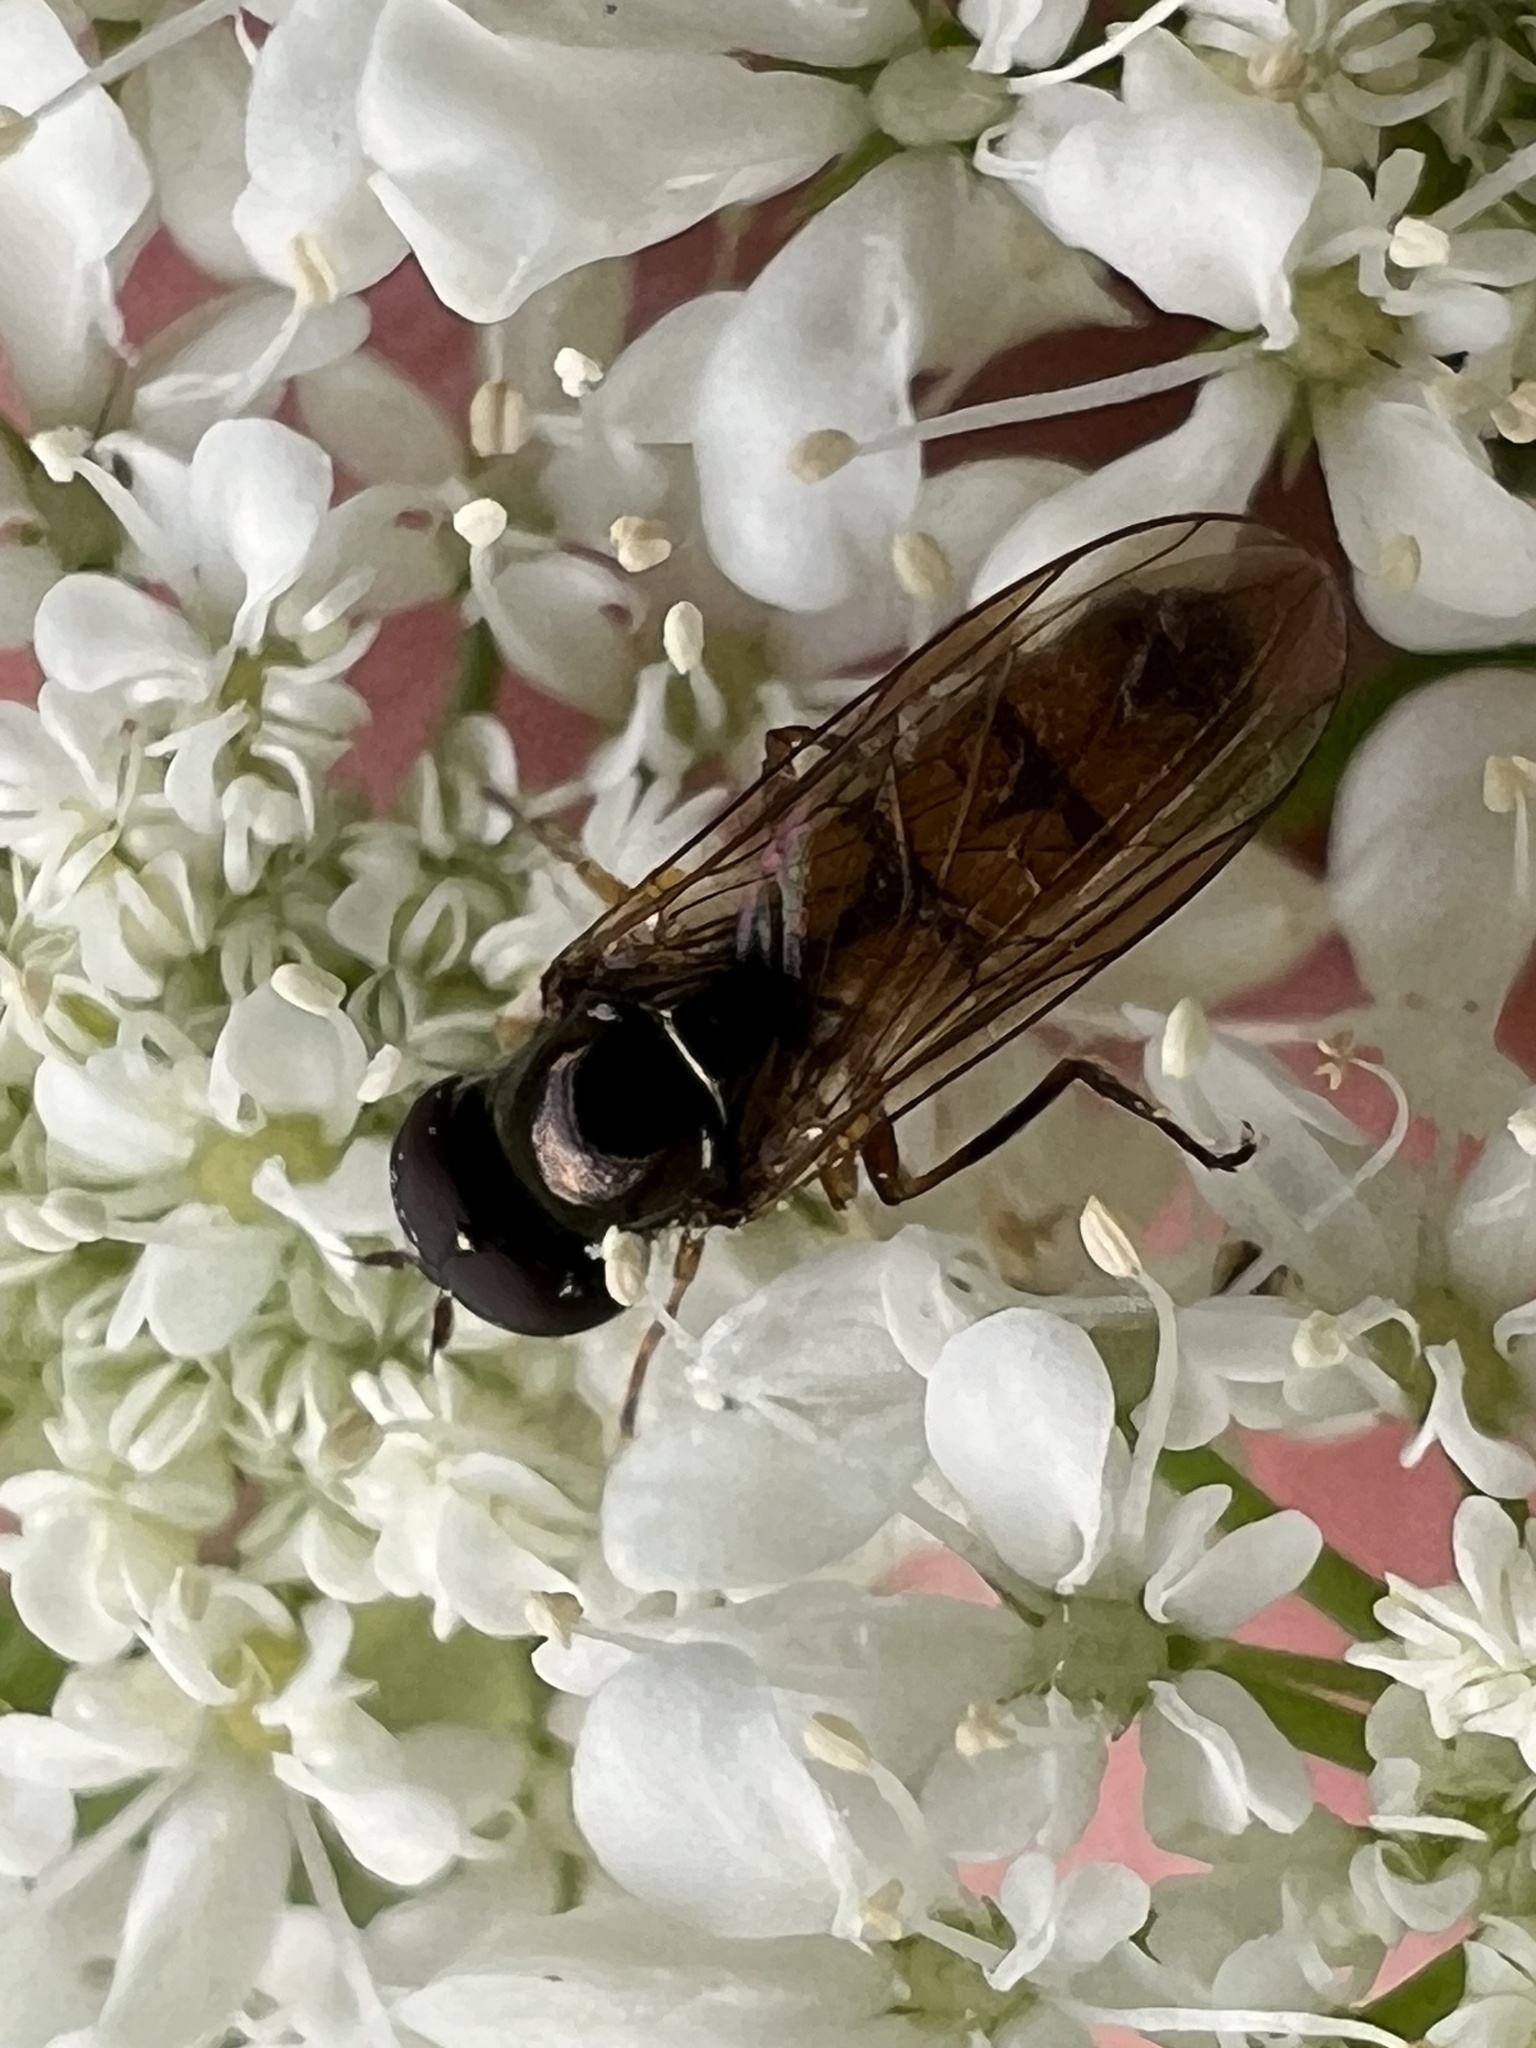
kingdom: Animalia
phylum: Arthropoda
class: Insecta
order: Diptera
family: Syrphidae
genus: Melanostoma
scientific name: Melanostoma fasciatum
